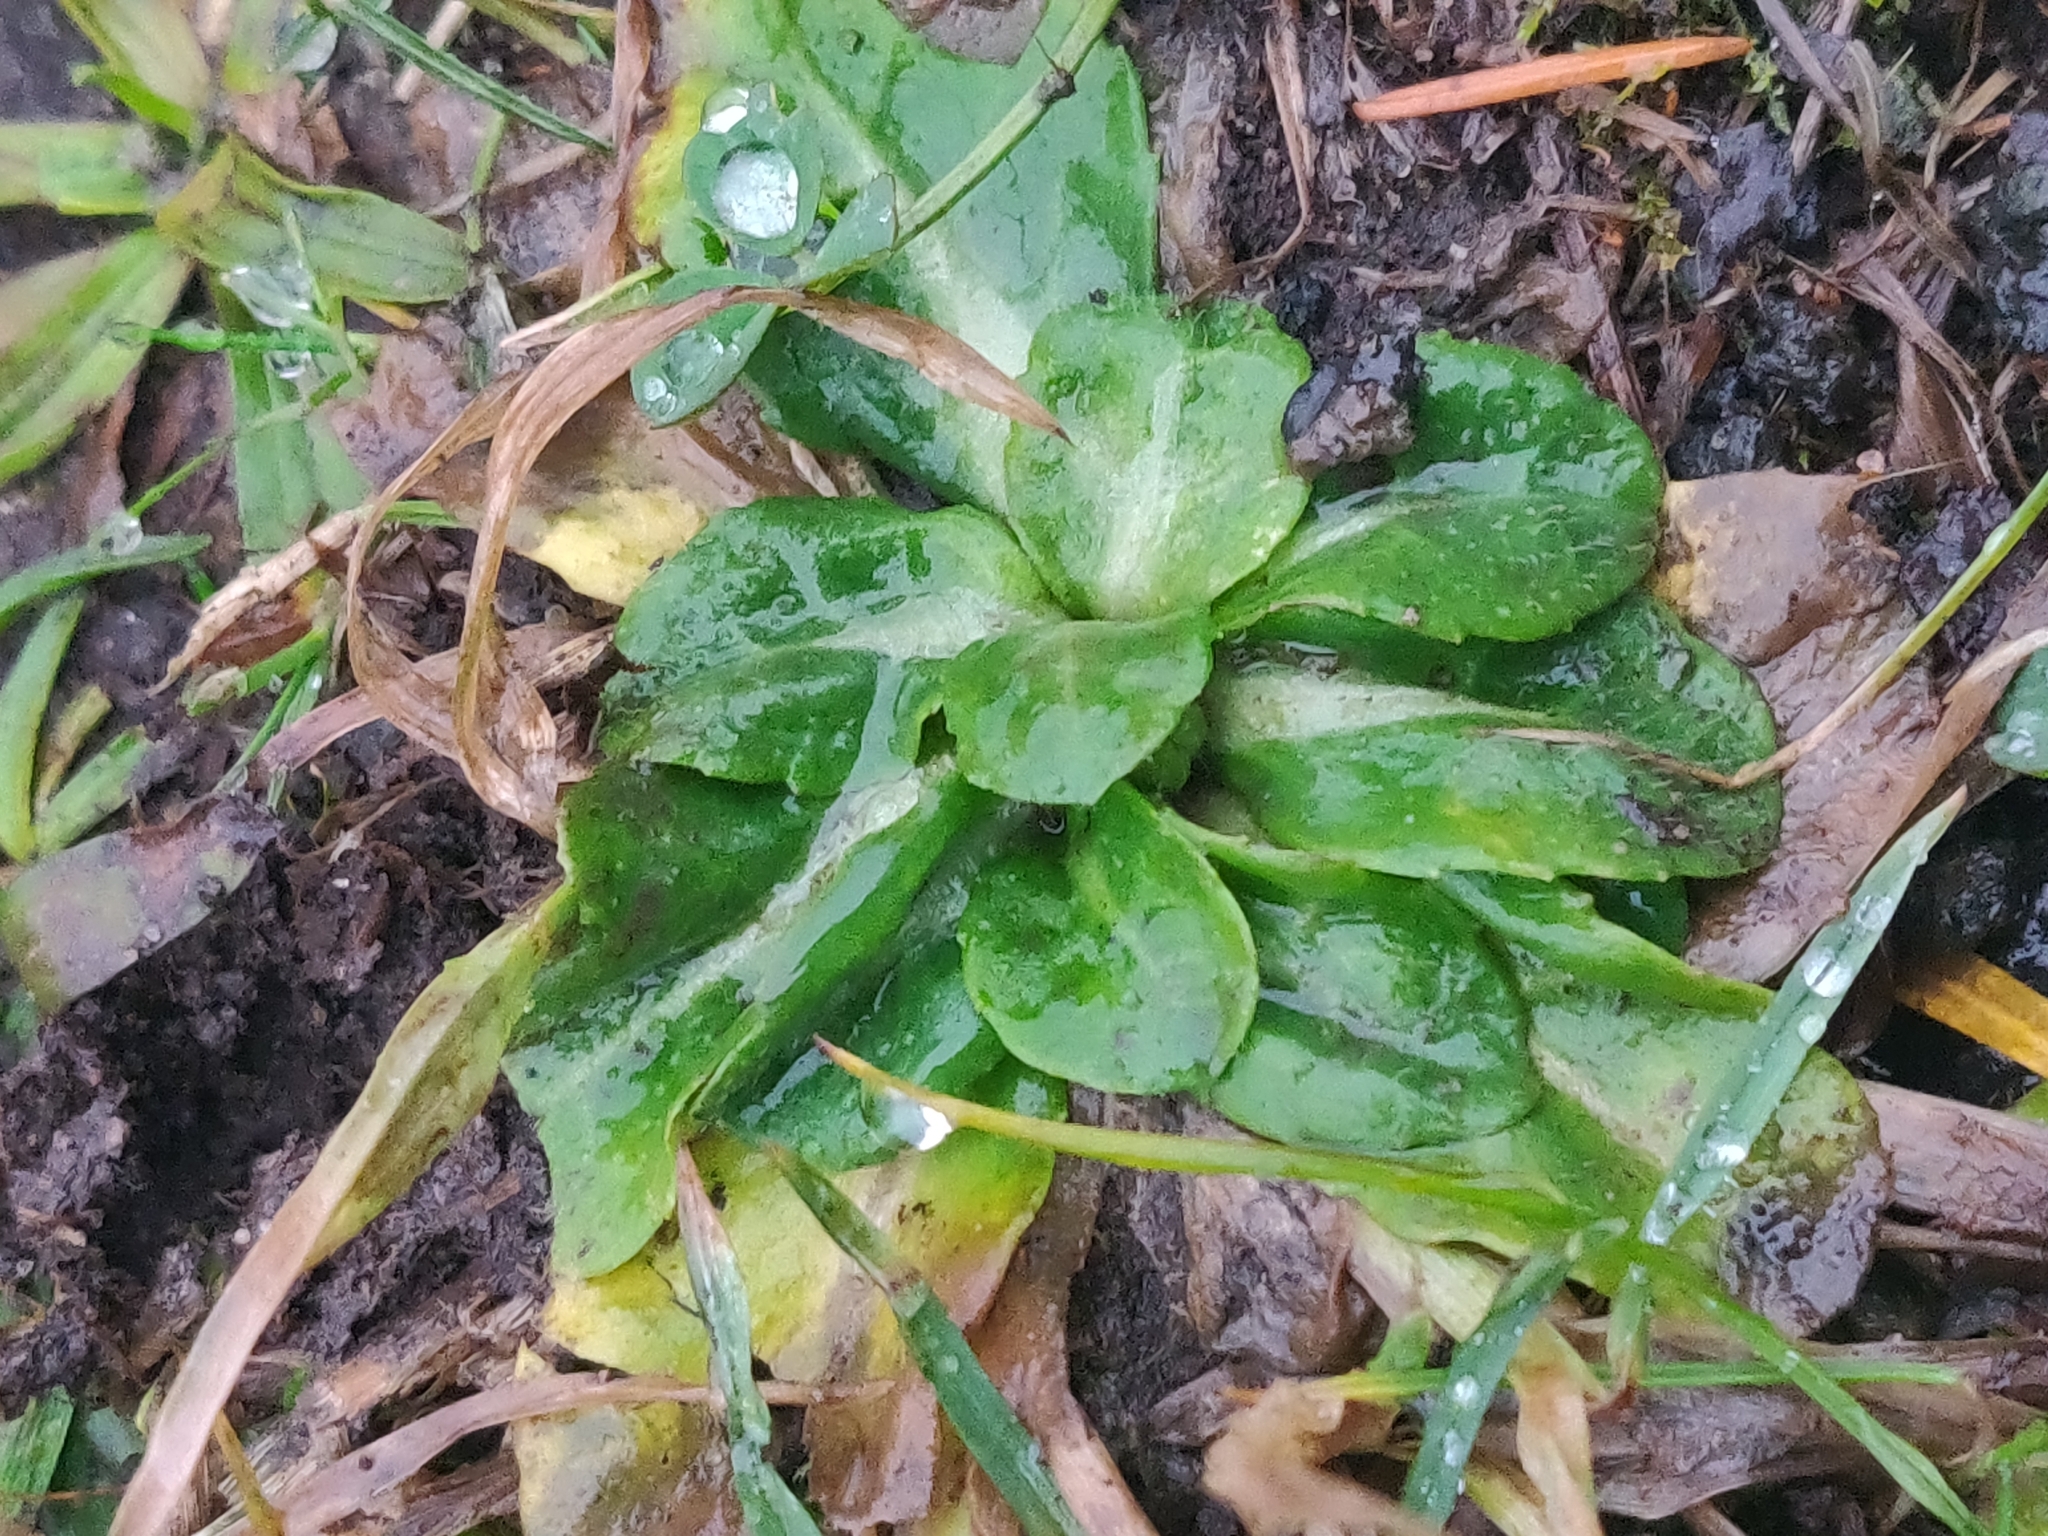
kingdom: Plantae
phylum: Tracheophyta
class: Magnoliopsida
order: Asterales
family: Asteraceae
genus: Bellis
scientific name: Bellis perennis
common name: Lawndaisy
